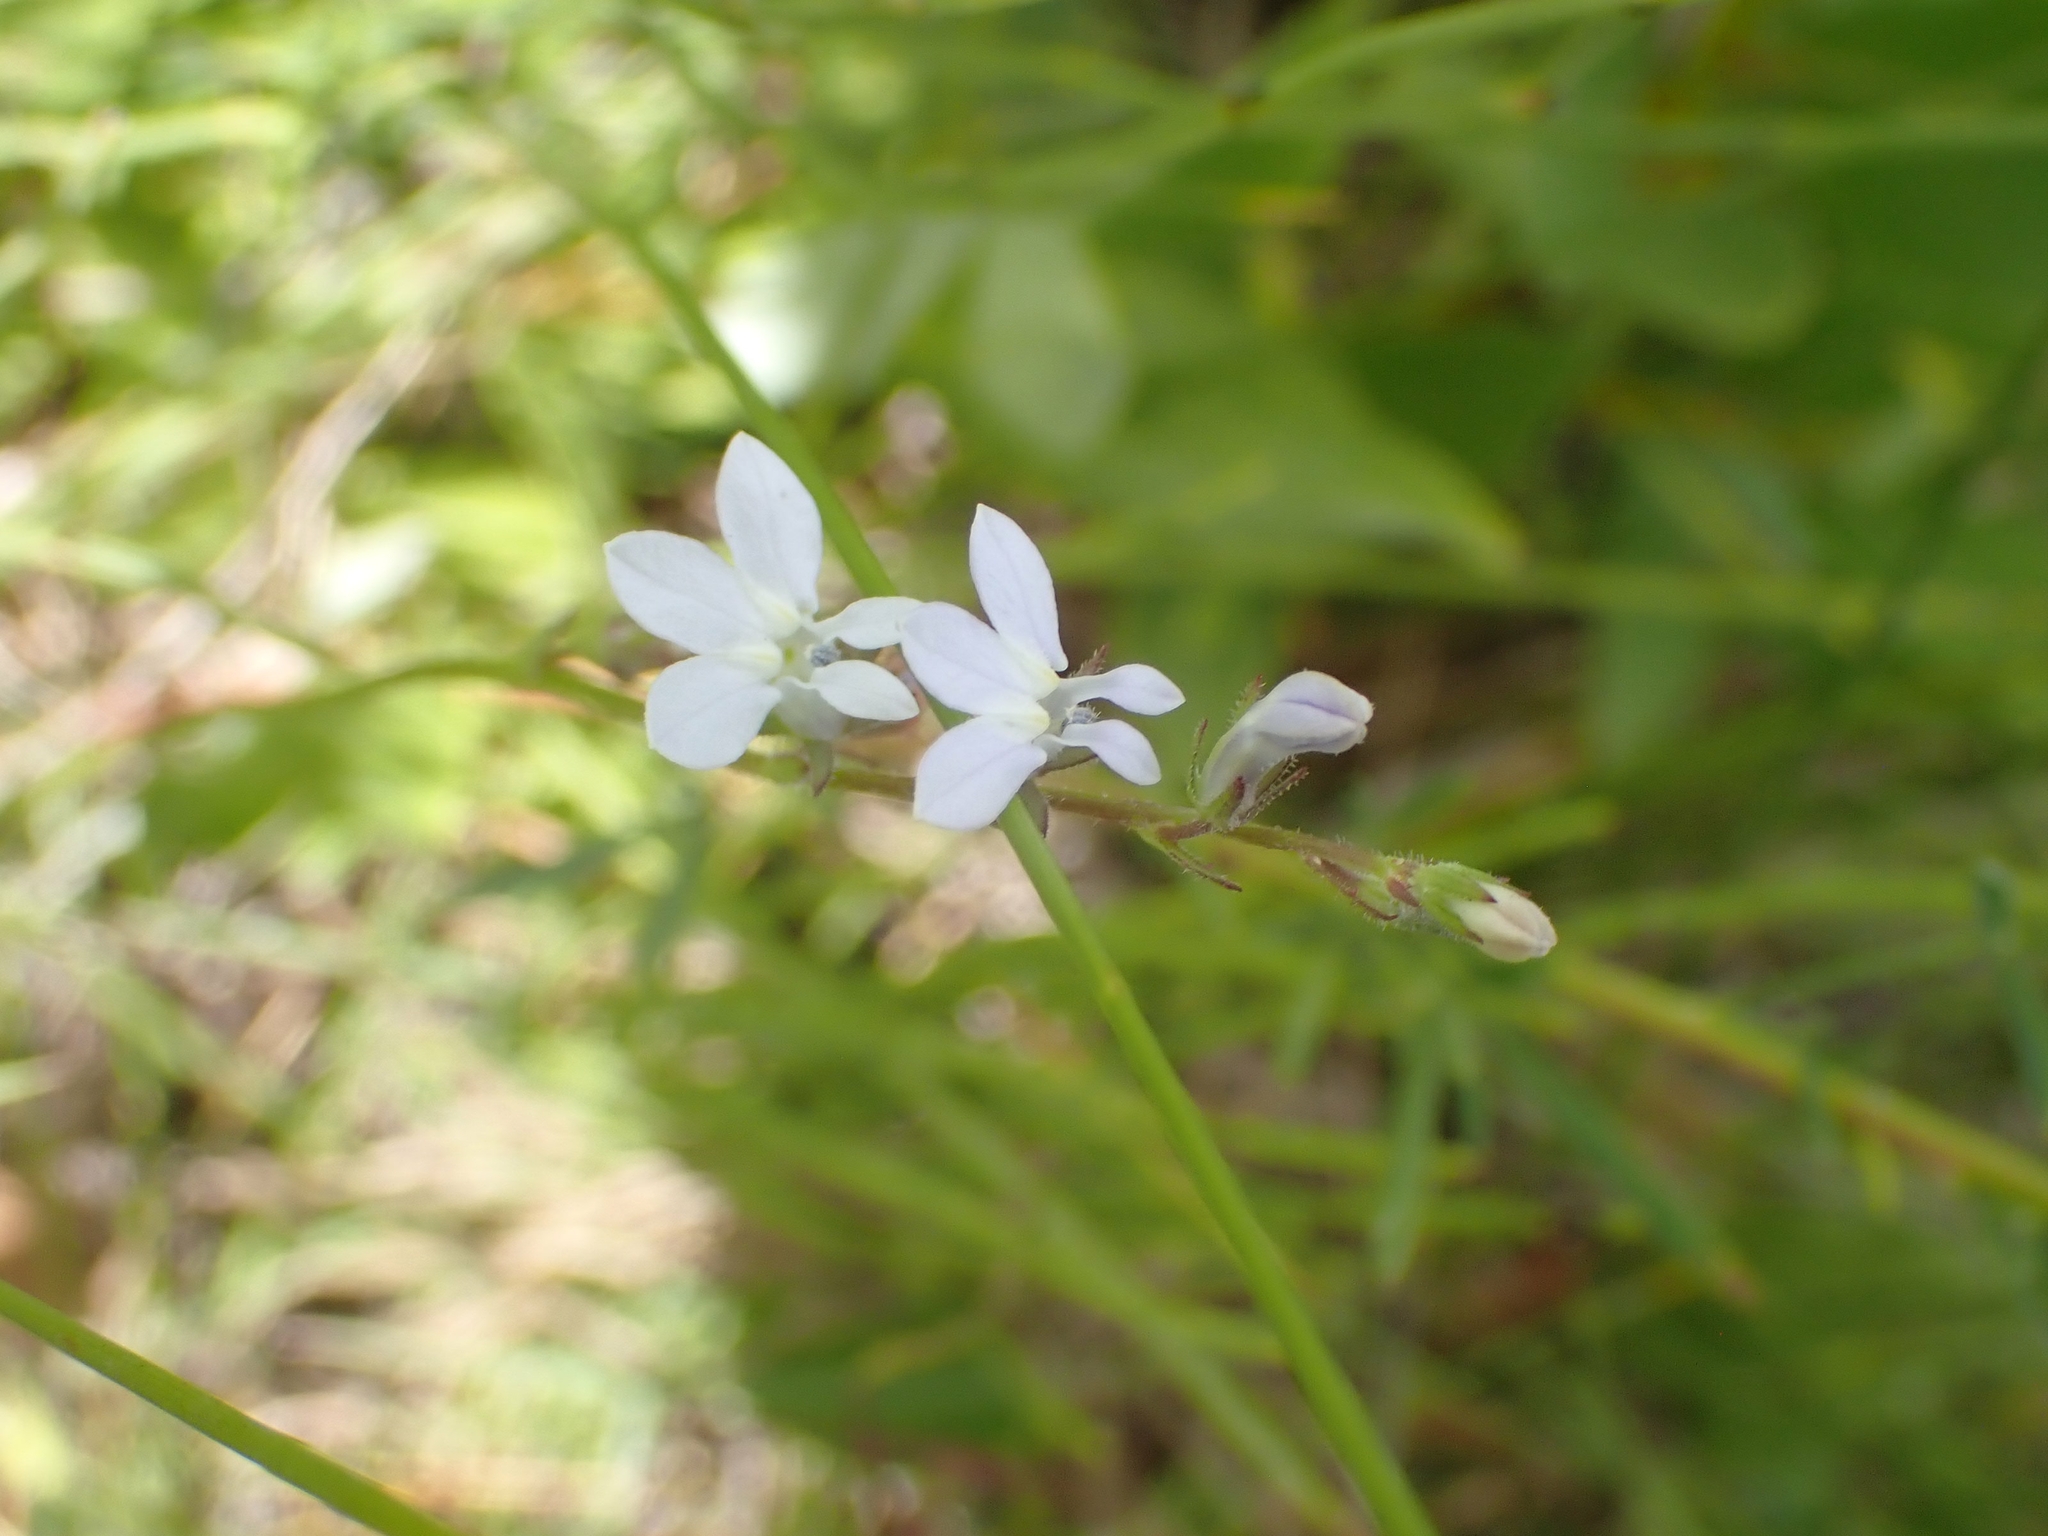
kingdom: Plantae
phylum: Tracheophyta
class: Magnoliopsida
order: Asterales
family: Campanulaceae
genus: Lobelia
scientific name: Lobelia spicata
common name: Pale-spike lobelia
